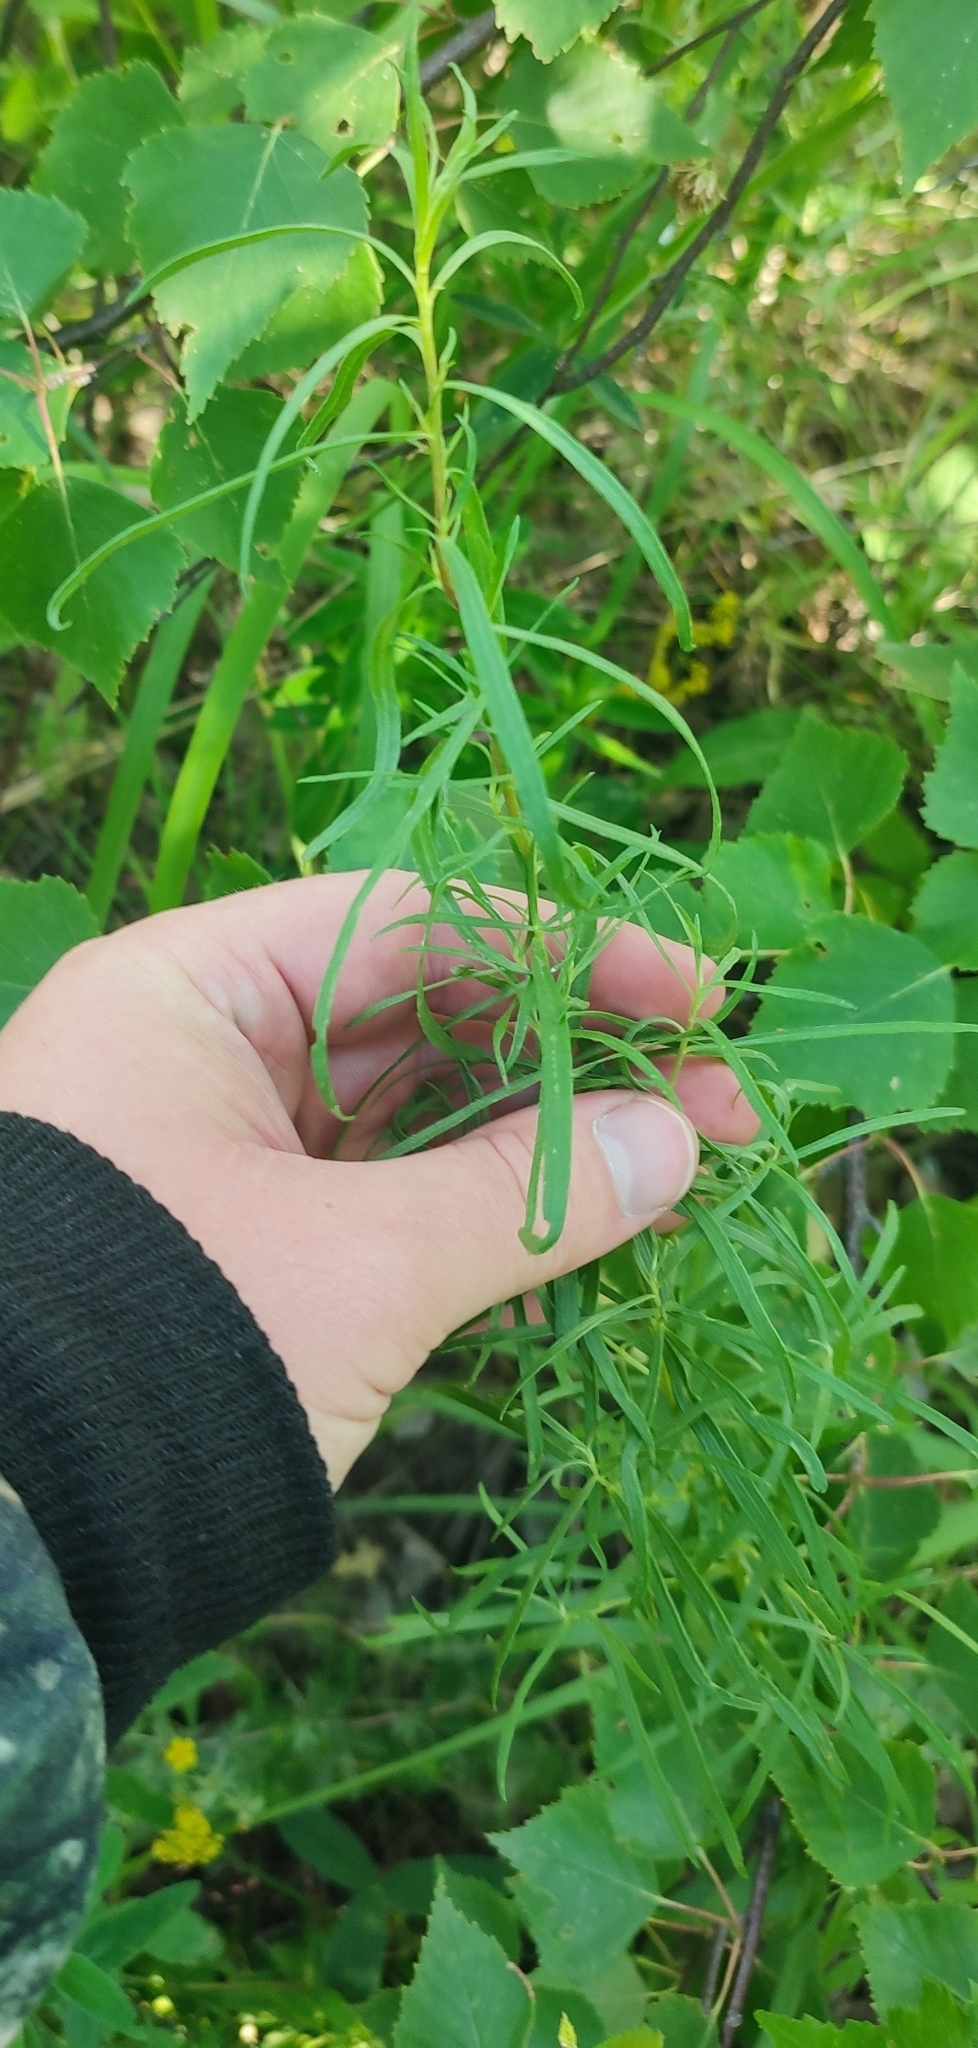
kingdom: Plantae
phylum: Tracheophyta
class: Magnoliopsida
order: Asterales
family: Asteraceae
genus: Artemisia
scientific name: Artemisia dracunculus
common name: Tarragon
